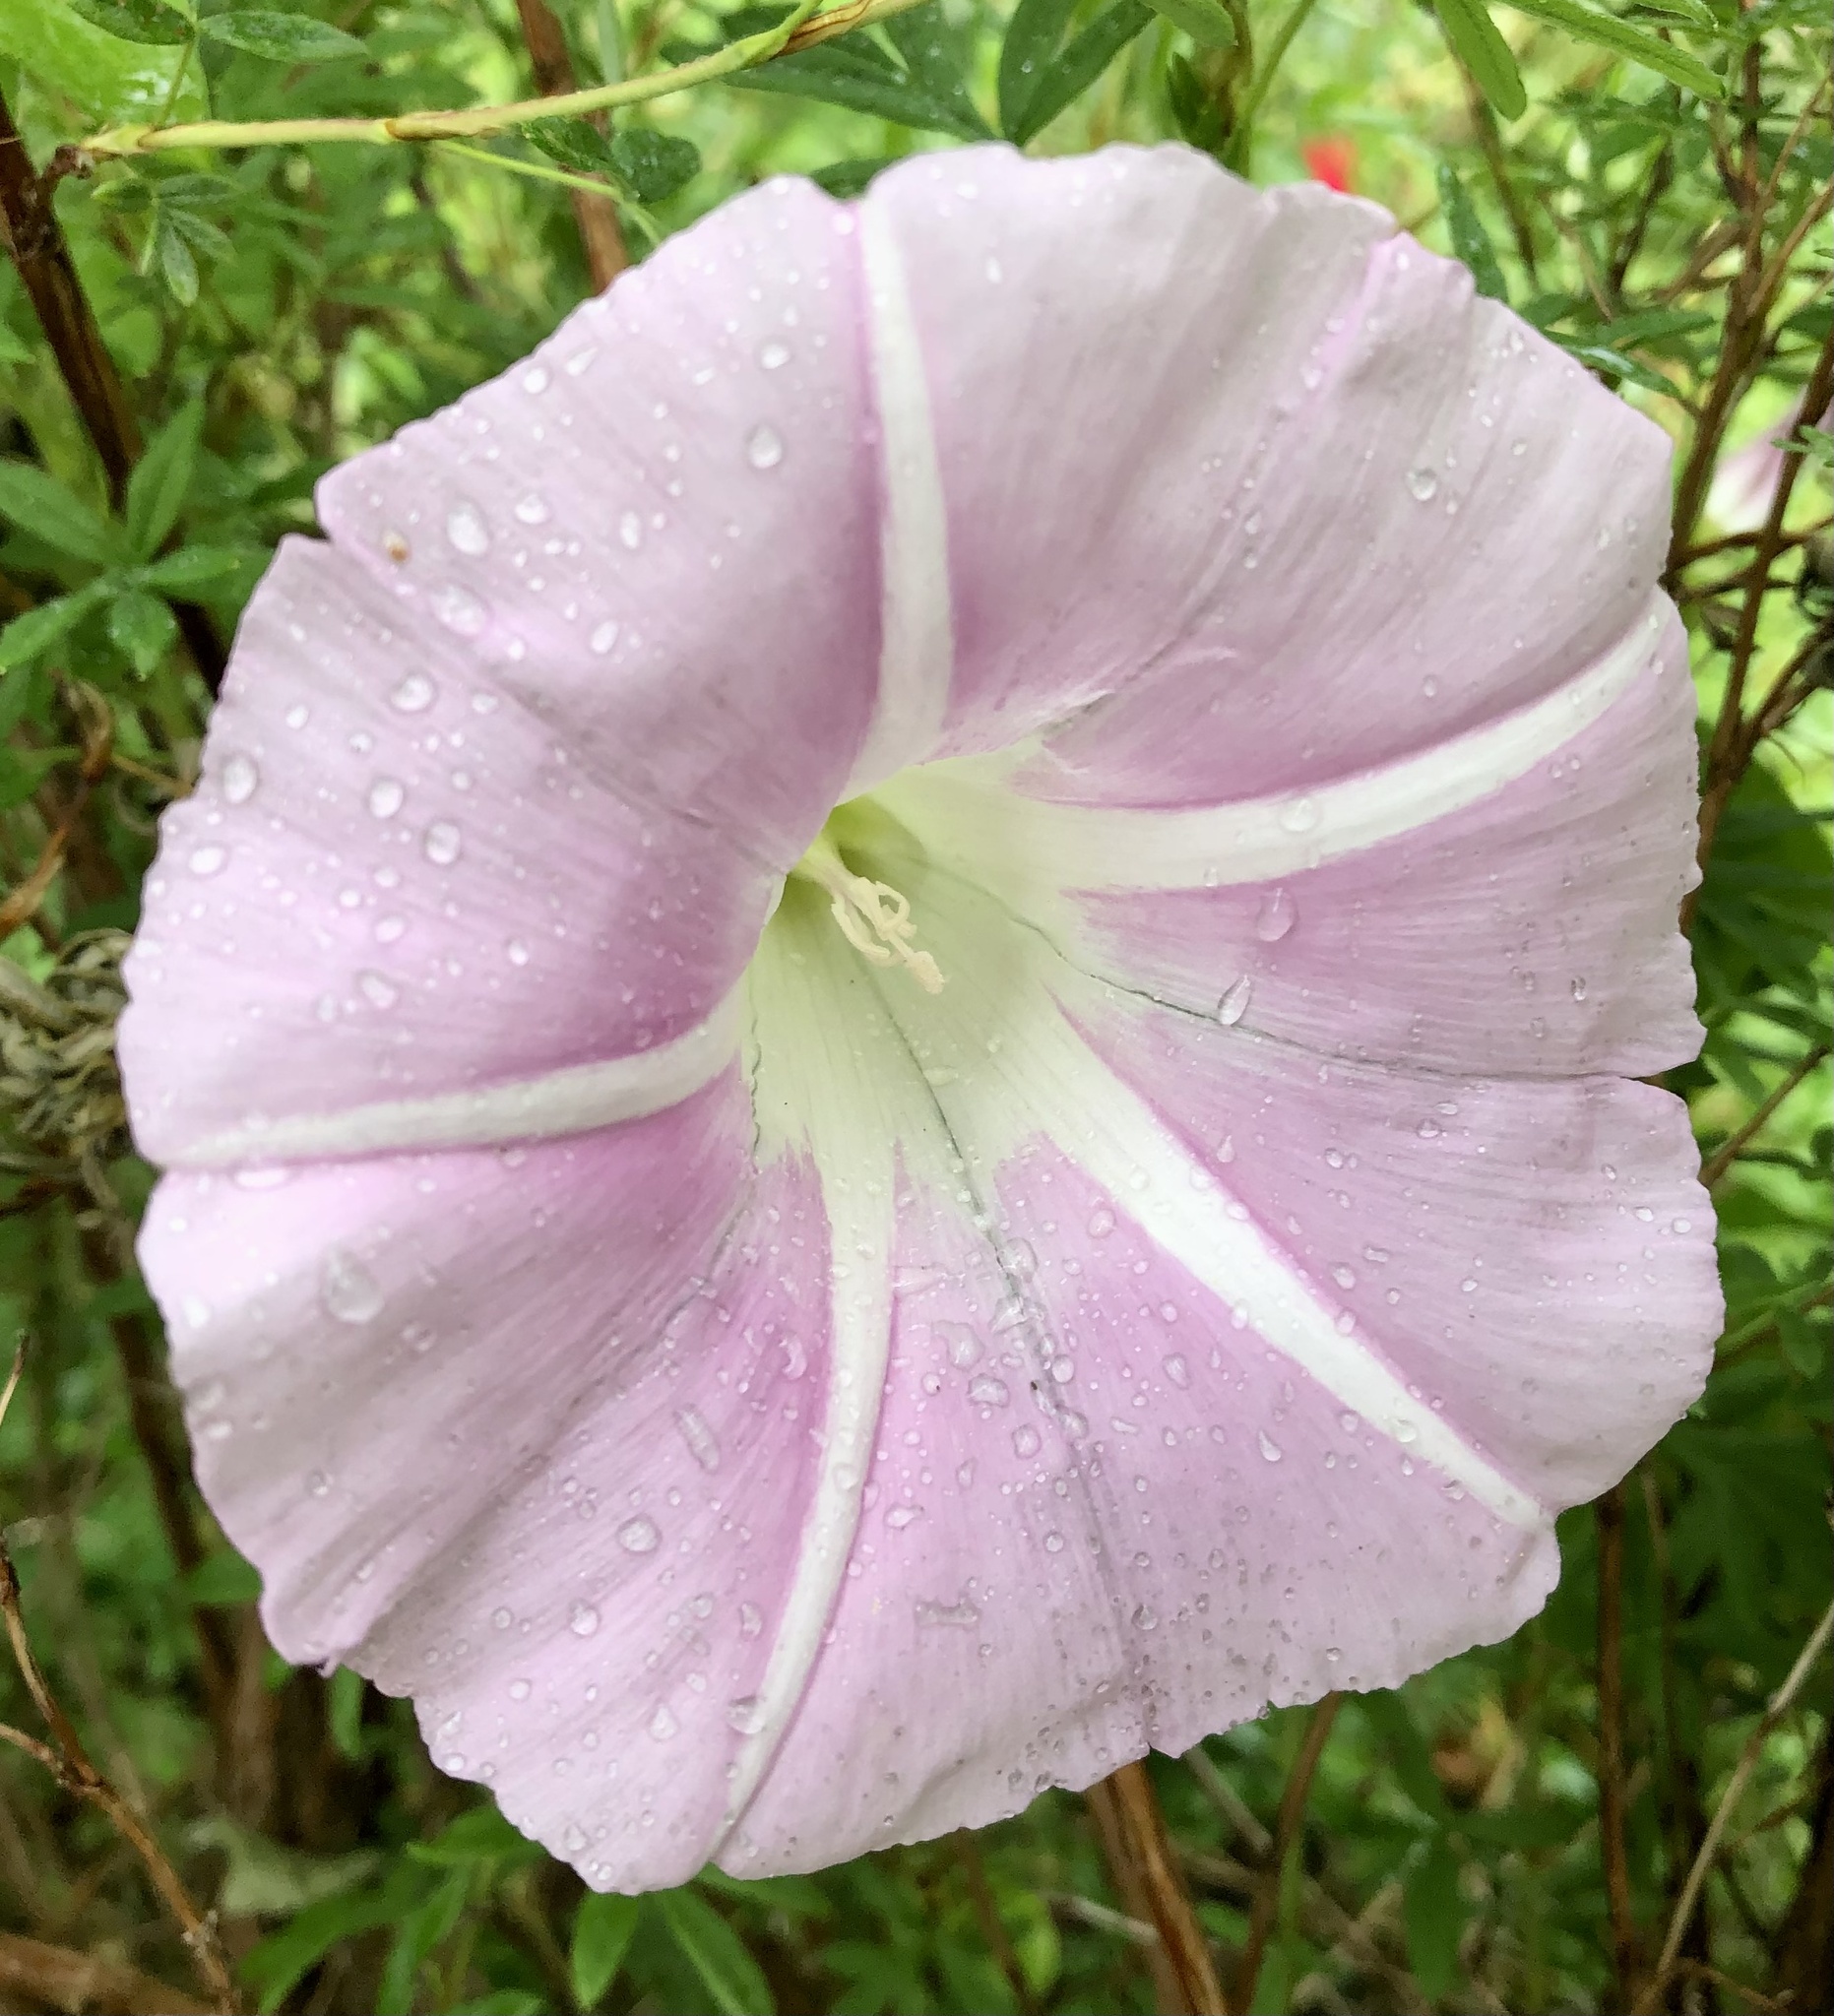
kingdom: Plantae
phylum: Tracheophyta
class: Magnoliopsida
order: Solanales
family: Convolvulaceae
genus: Calystegia
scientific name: Calystegia
